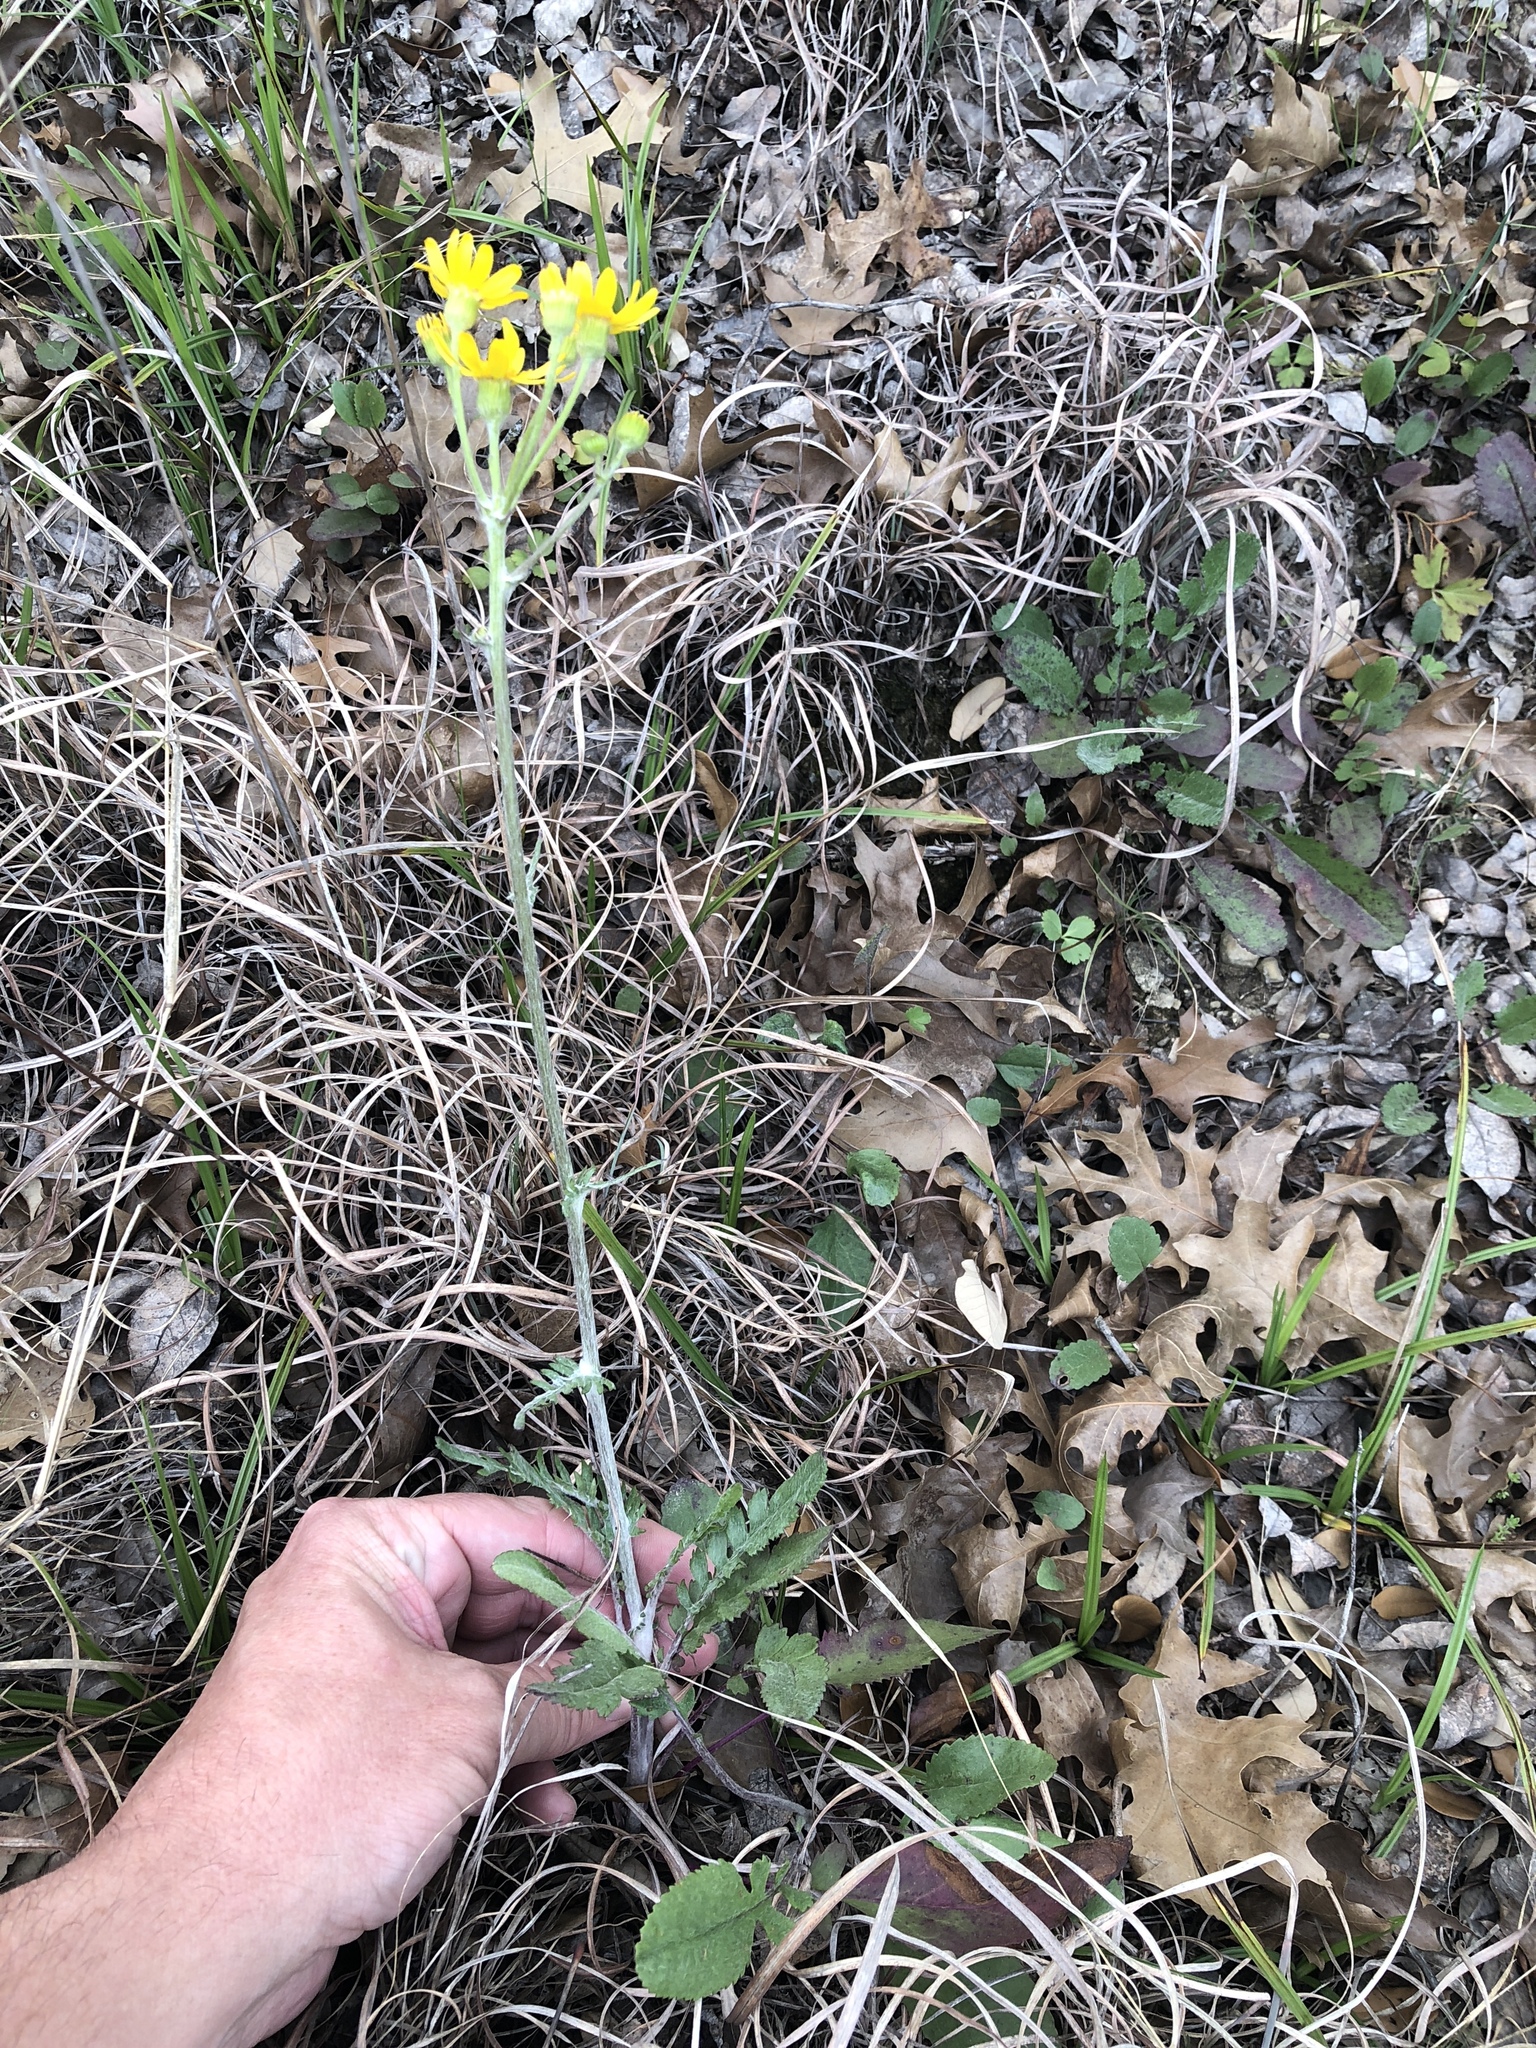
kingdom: Plantae
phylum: Tracheophyta
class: Magnoliopsida
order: Asterales
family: Asteraceae
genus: Packera
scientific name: Packera plattensis
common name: Prairie groundsel
